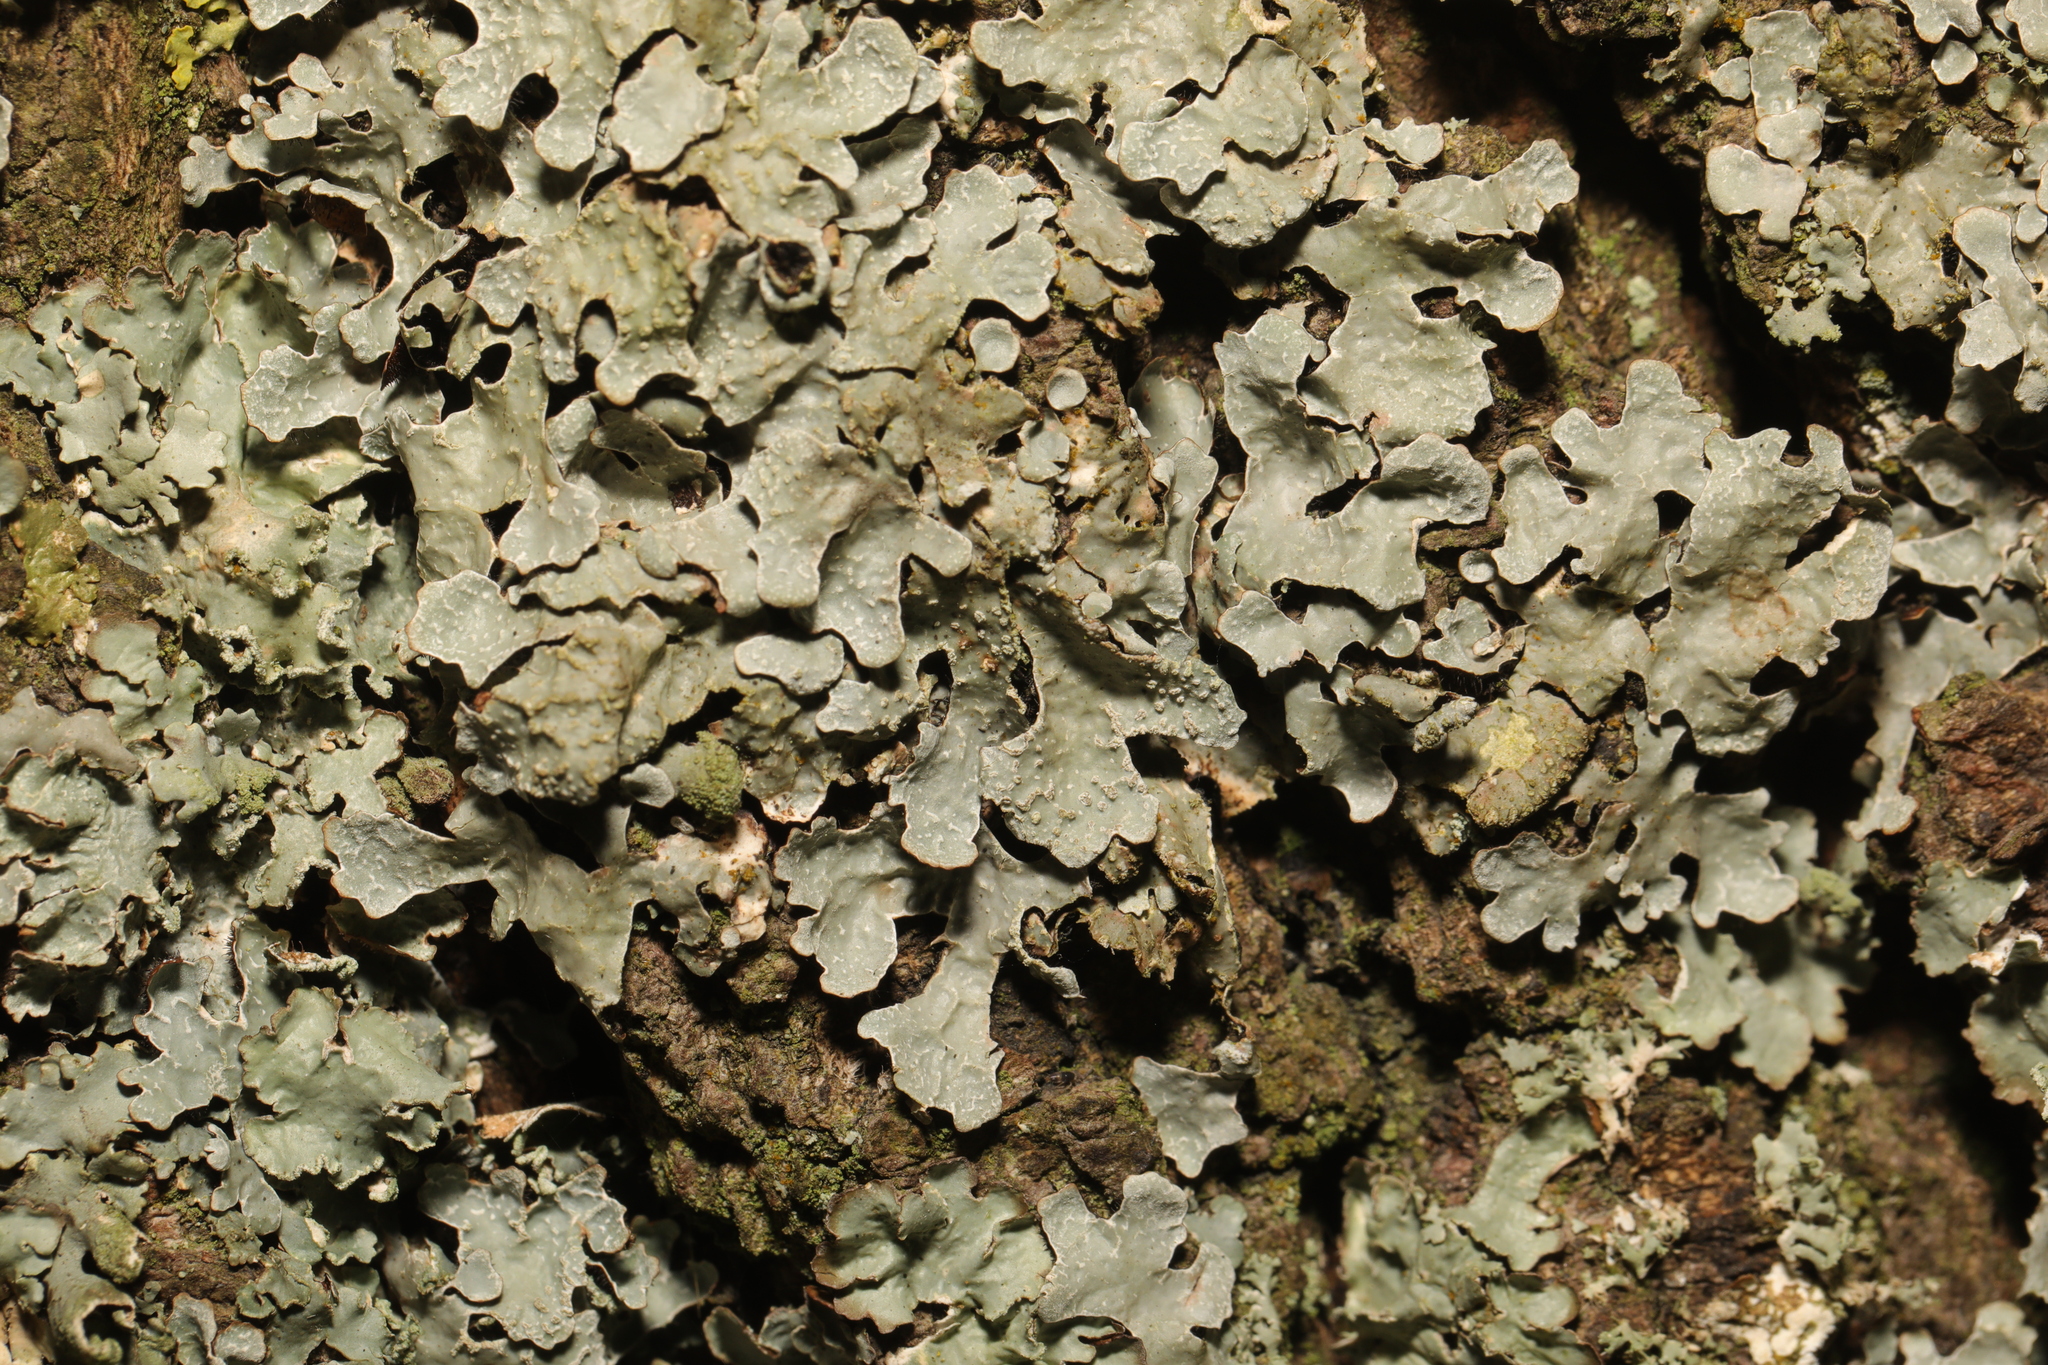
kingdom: Fungi
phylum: Ascomycota
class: Lecanoromycetes
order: Lecanorales
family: Parmeliaceae
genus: Parmelia
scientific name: Parmelia sulcata
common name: Netted shield lichen
